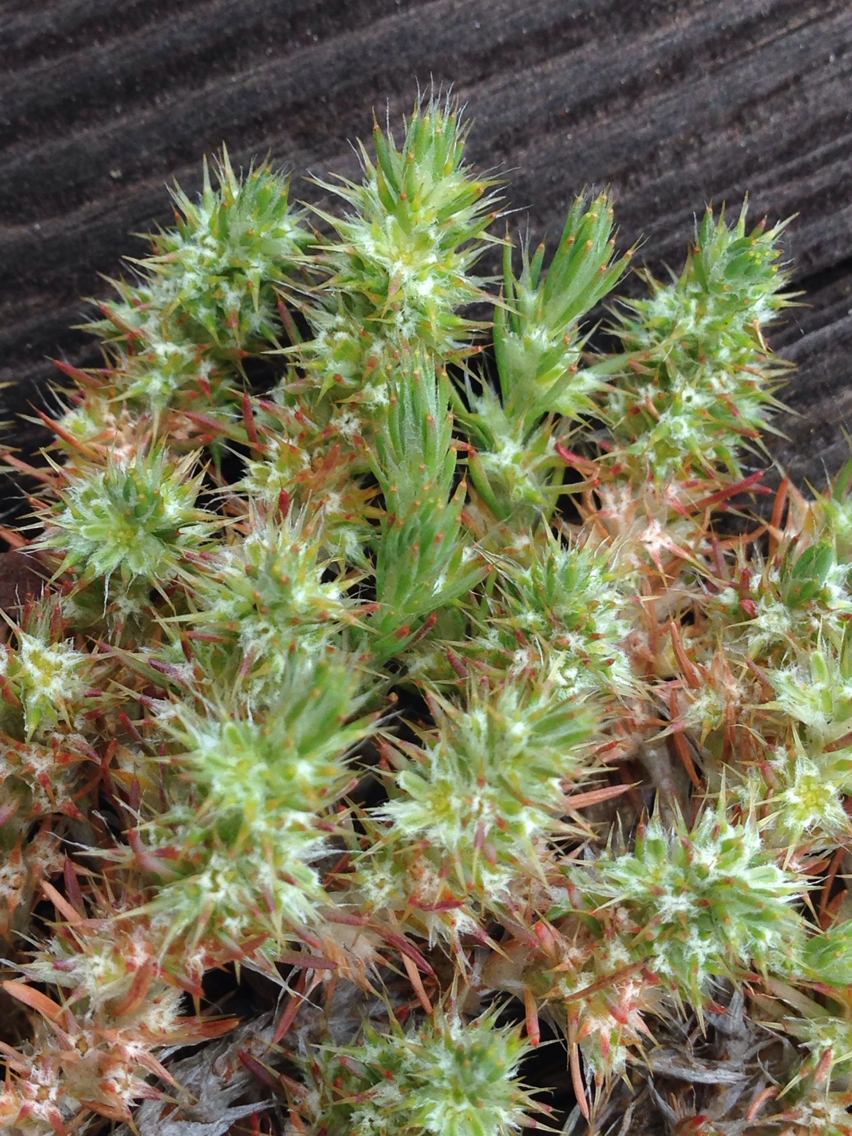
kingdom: Plantae
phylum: Tracheophyta
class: Magnoliopsida
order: Caryophyllales
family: Caryophyllaceae
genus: Cardionema
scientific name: Cardionema ramosissima
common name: Sandcarpet
